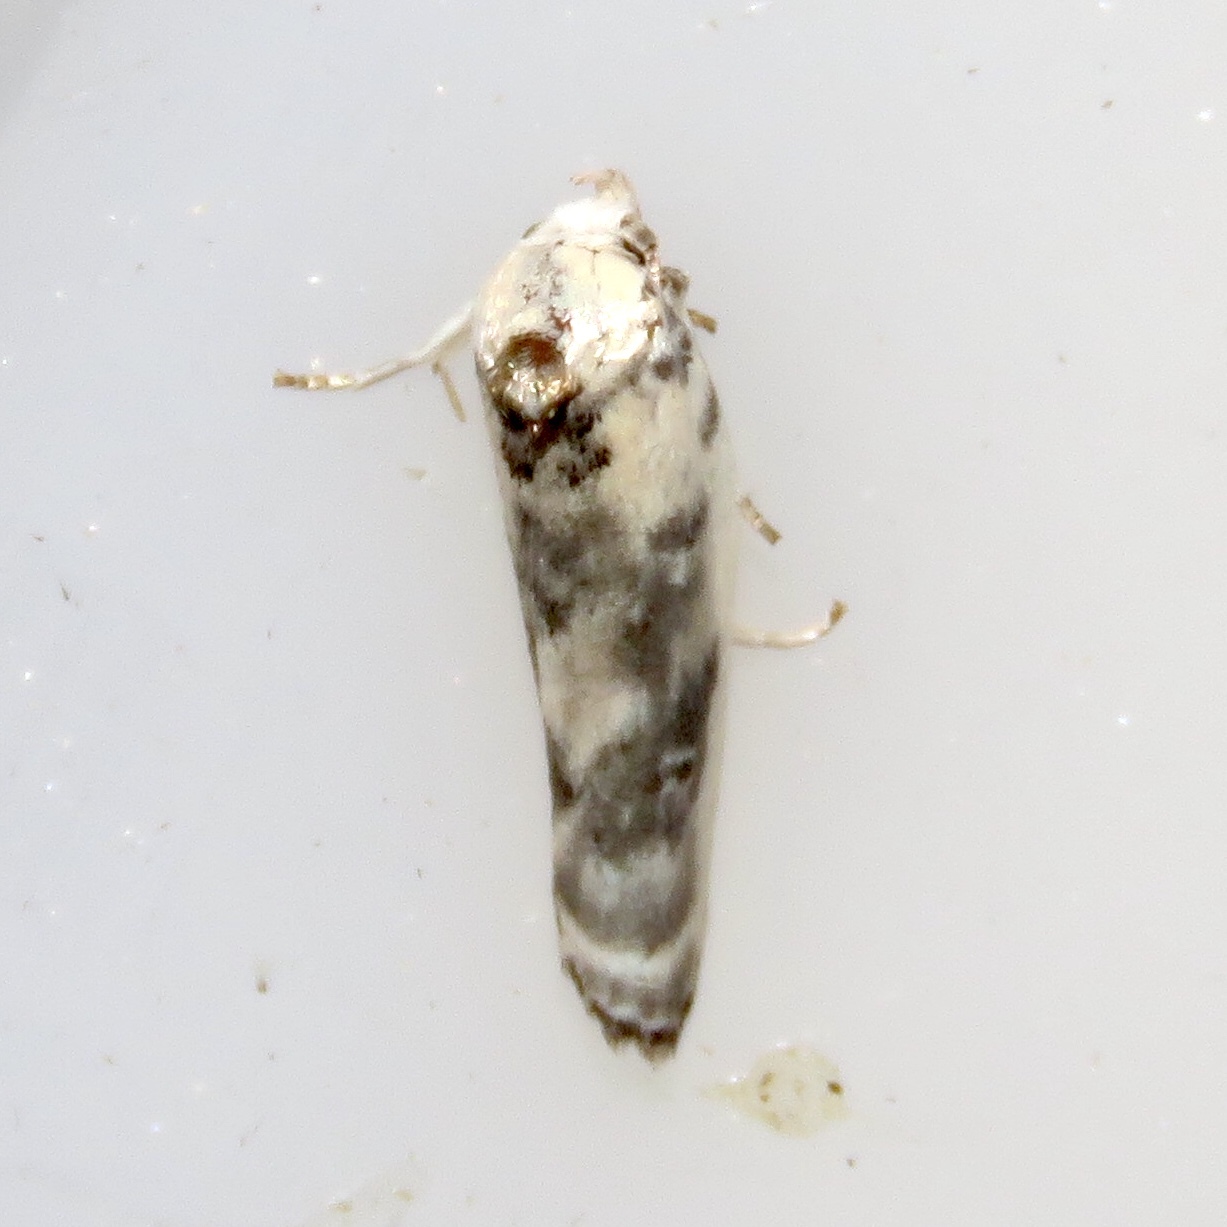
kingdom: Animalia
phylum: Arthropoda
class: Insecta
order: Lepidoptera
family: Depressariidae
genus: Antaeotricha
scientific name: Antaeotricha leucillana
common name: Pale gray bird-dropping moth
